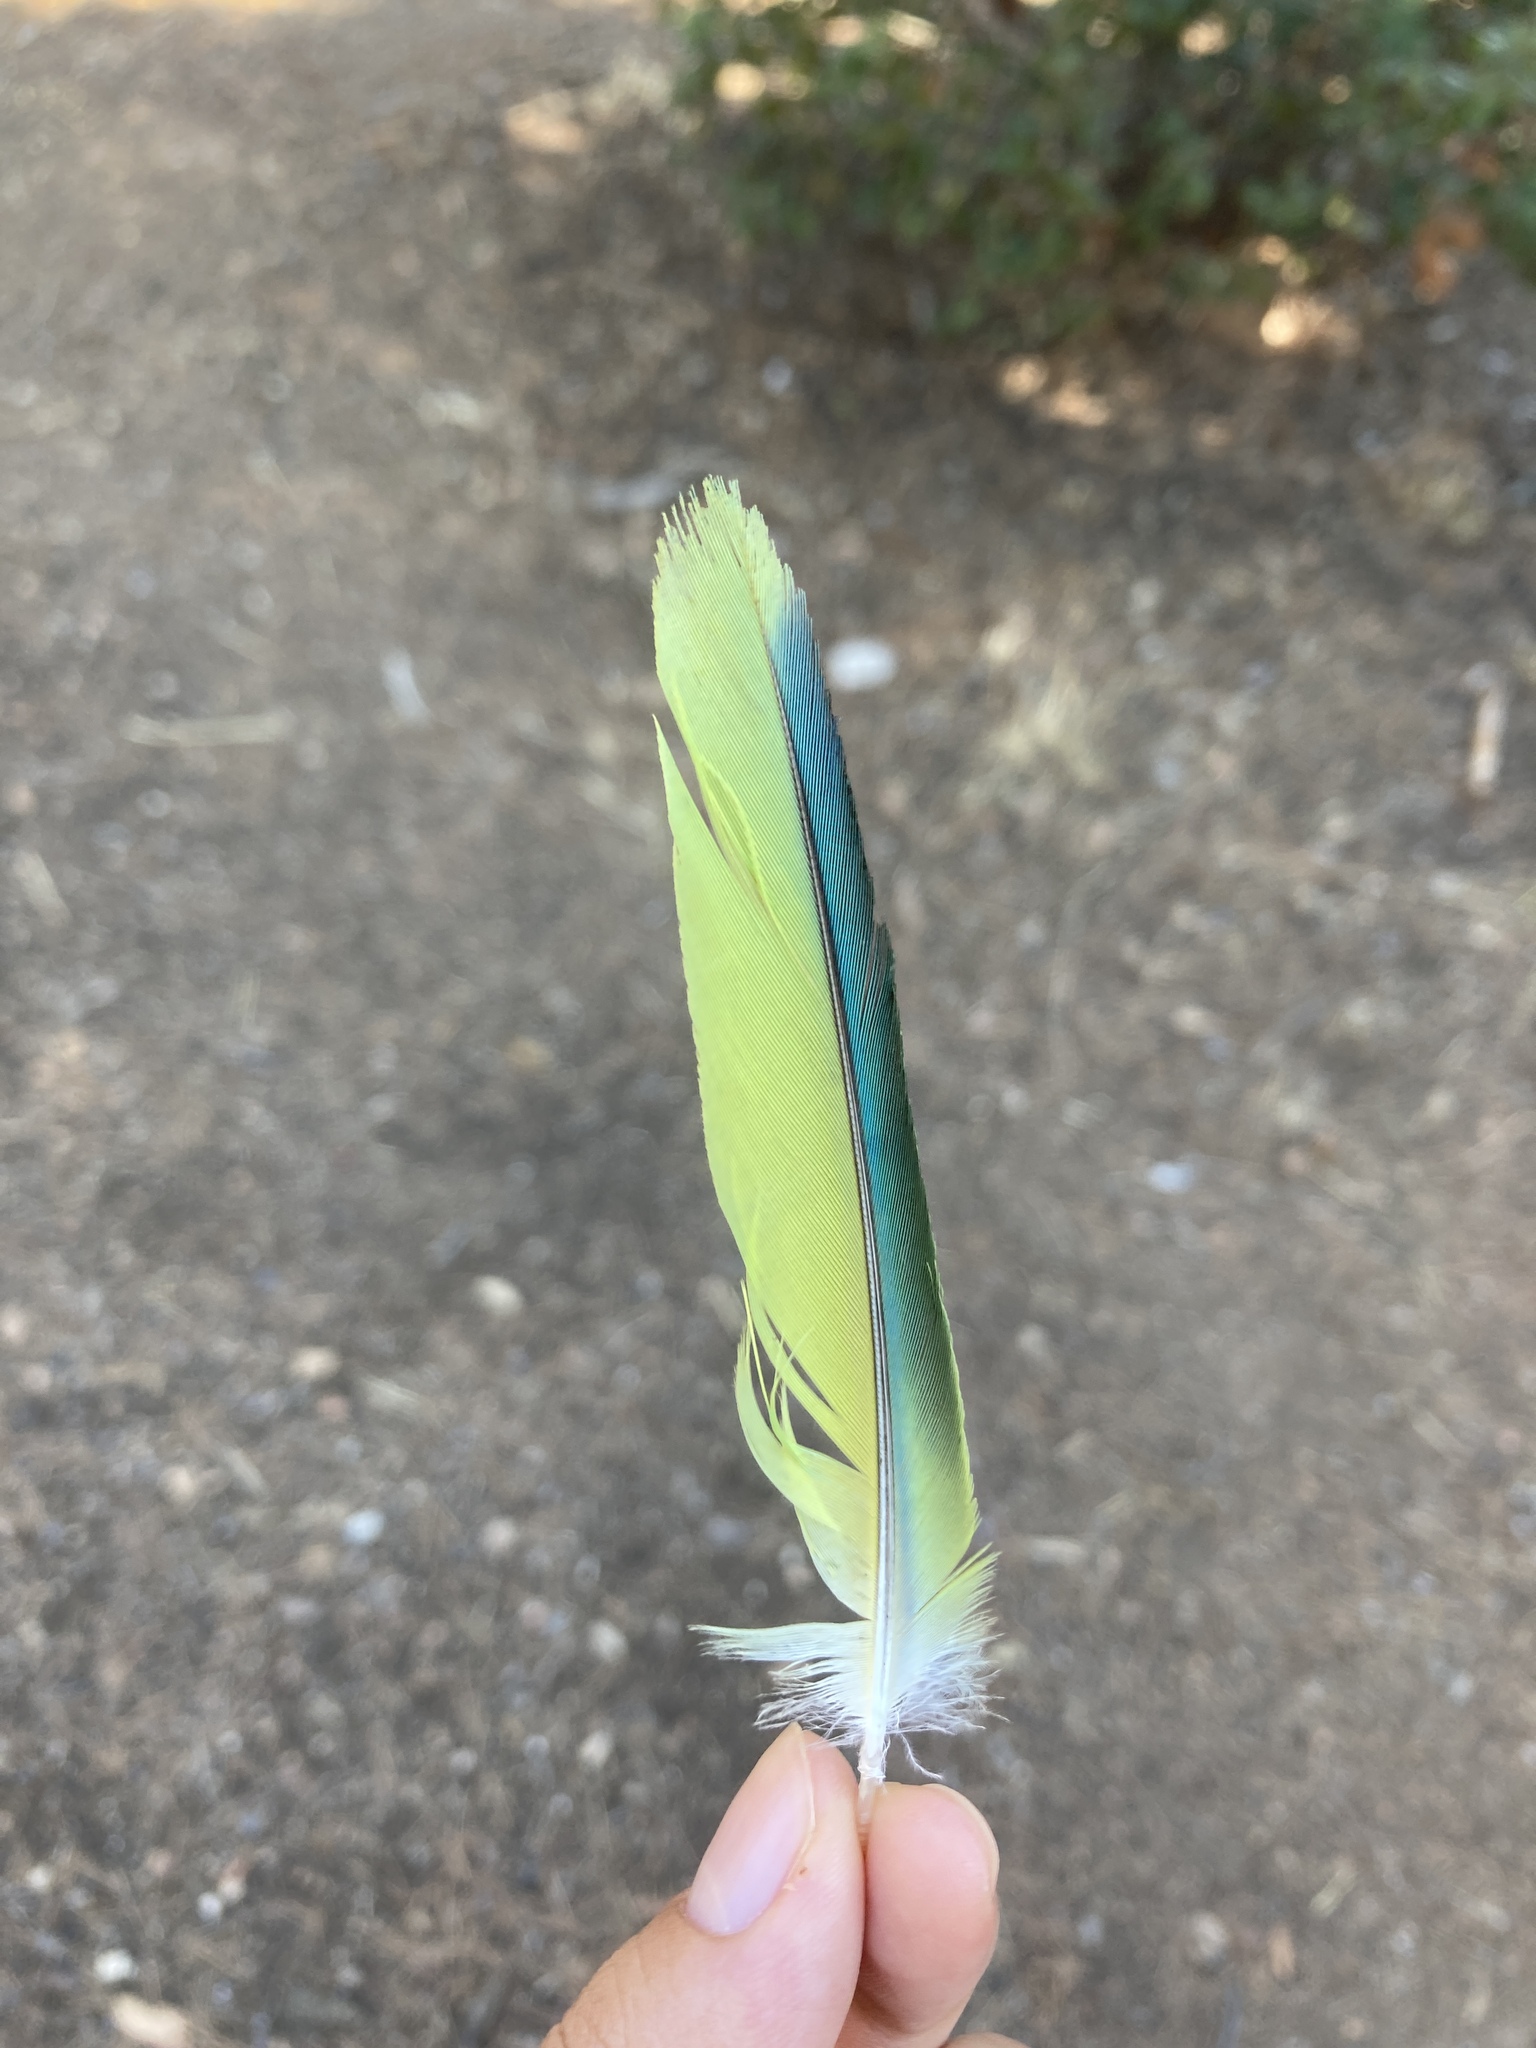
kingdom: Animalia
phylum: Chordata
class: Aves
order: Psittaciformes
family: Psittacidae
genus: Myiopsitta
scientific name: Myiopsitta monachus
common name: Monk parakeet
